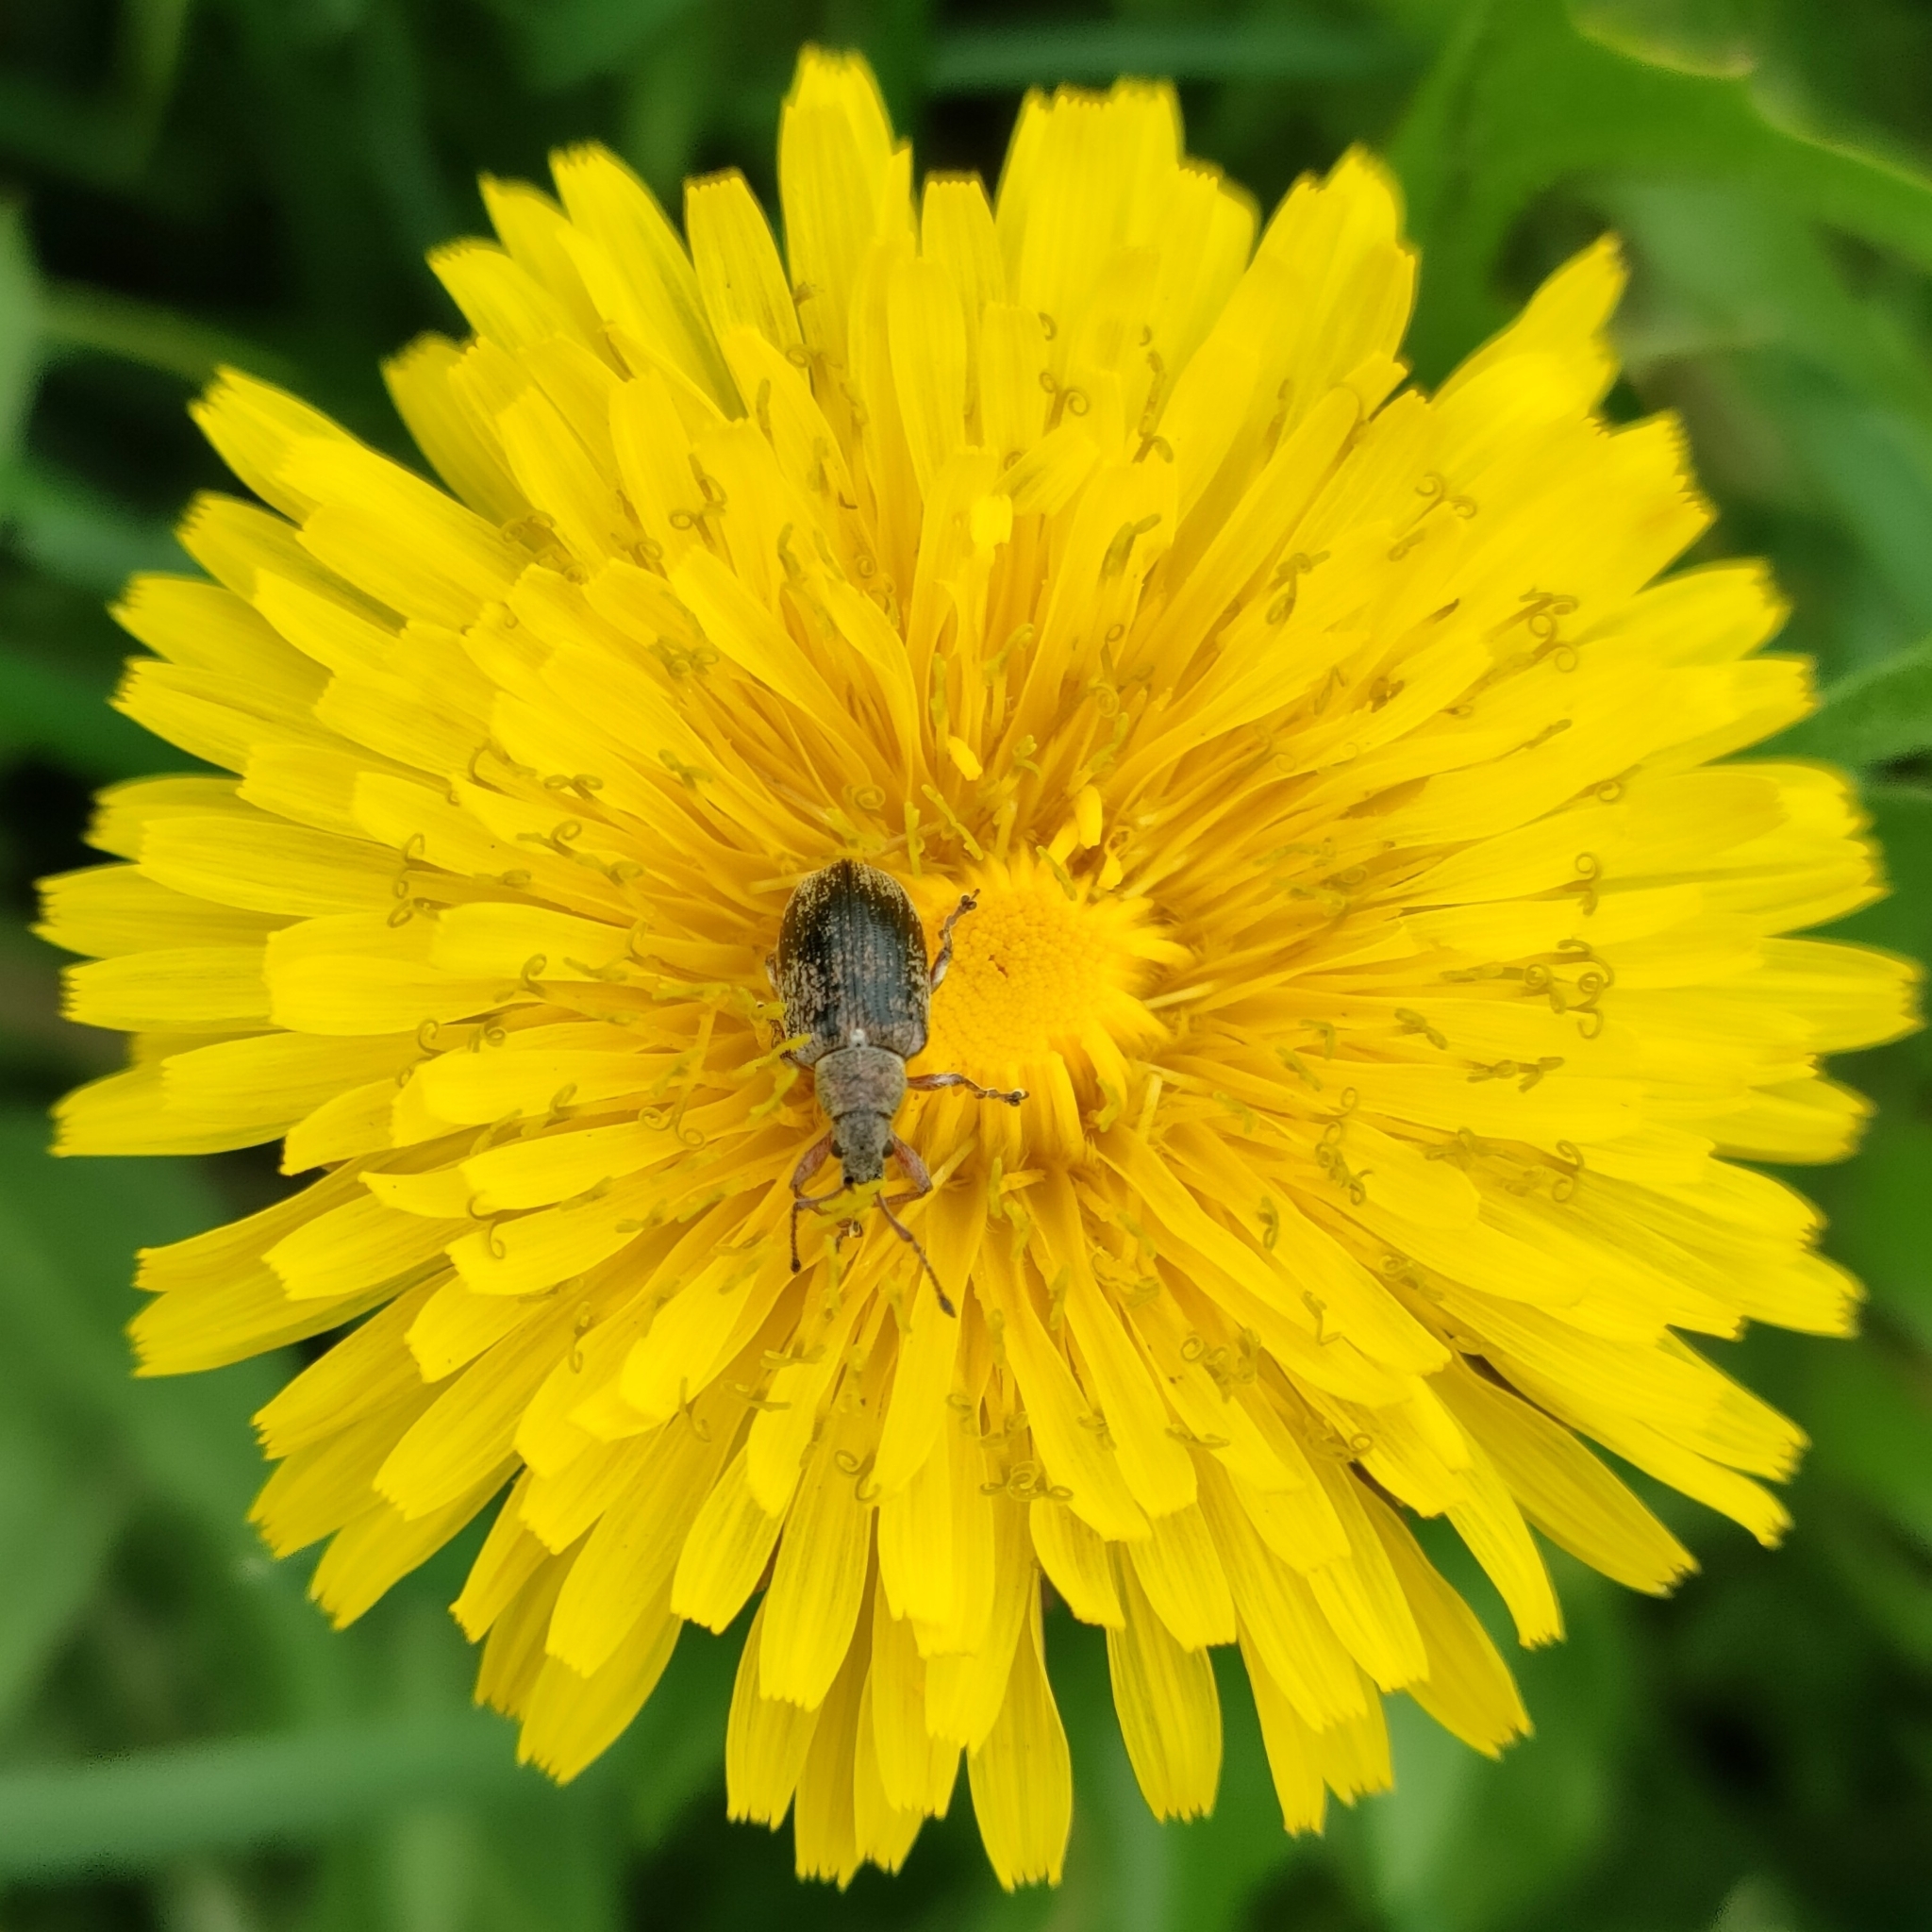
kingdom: Animalia
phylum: Arthropoda
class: Insecta
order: Coleoptera
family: Curculionidae
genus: Phyllobius
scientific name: Phyllobius pyri
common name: Common leaf weevil
